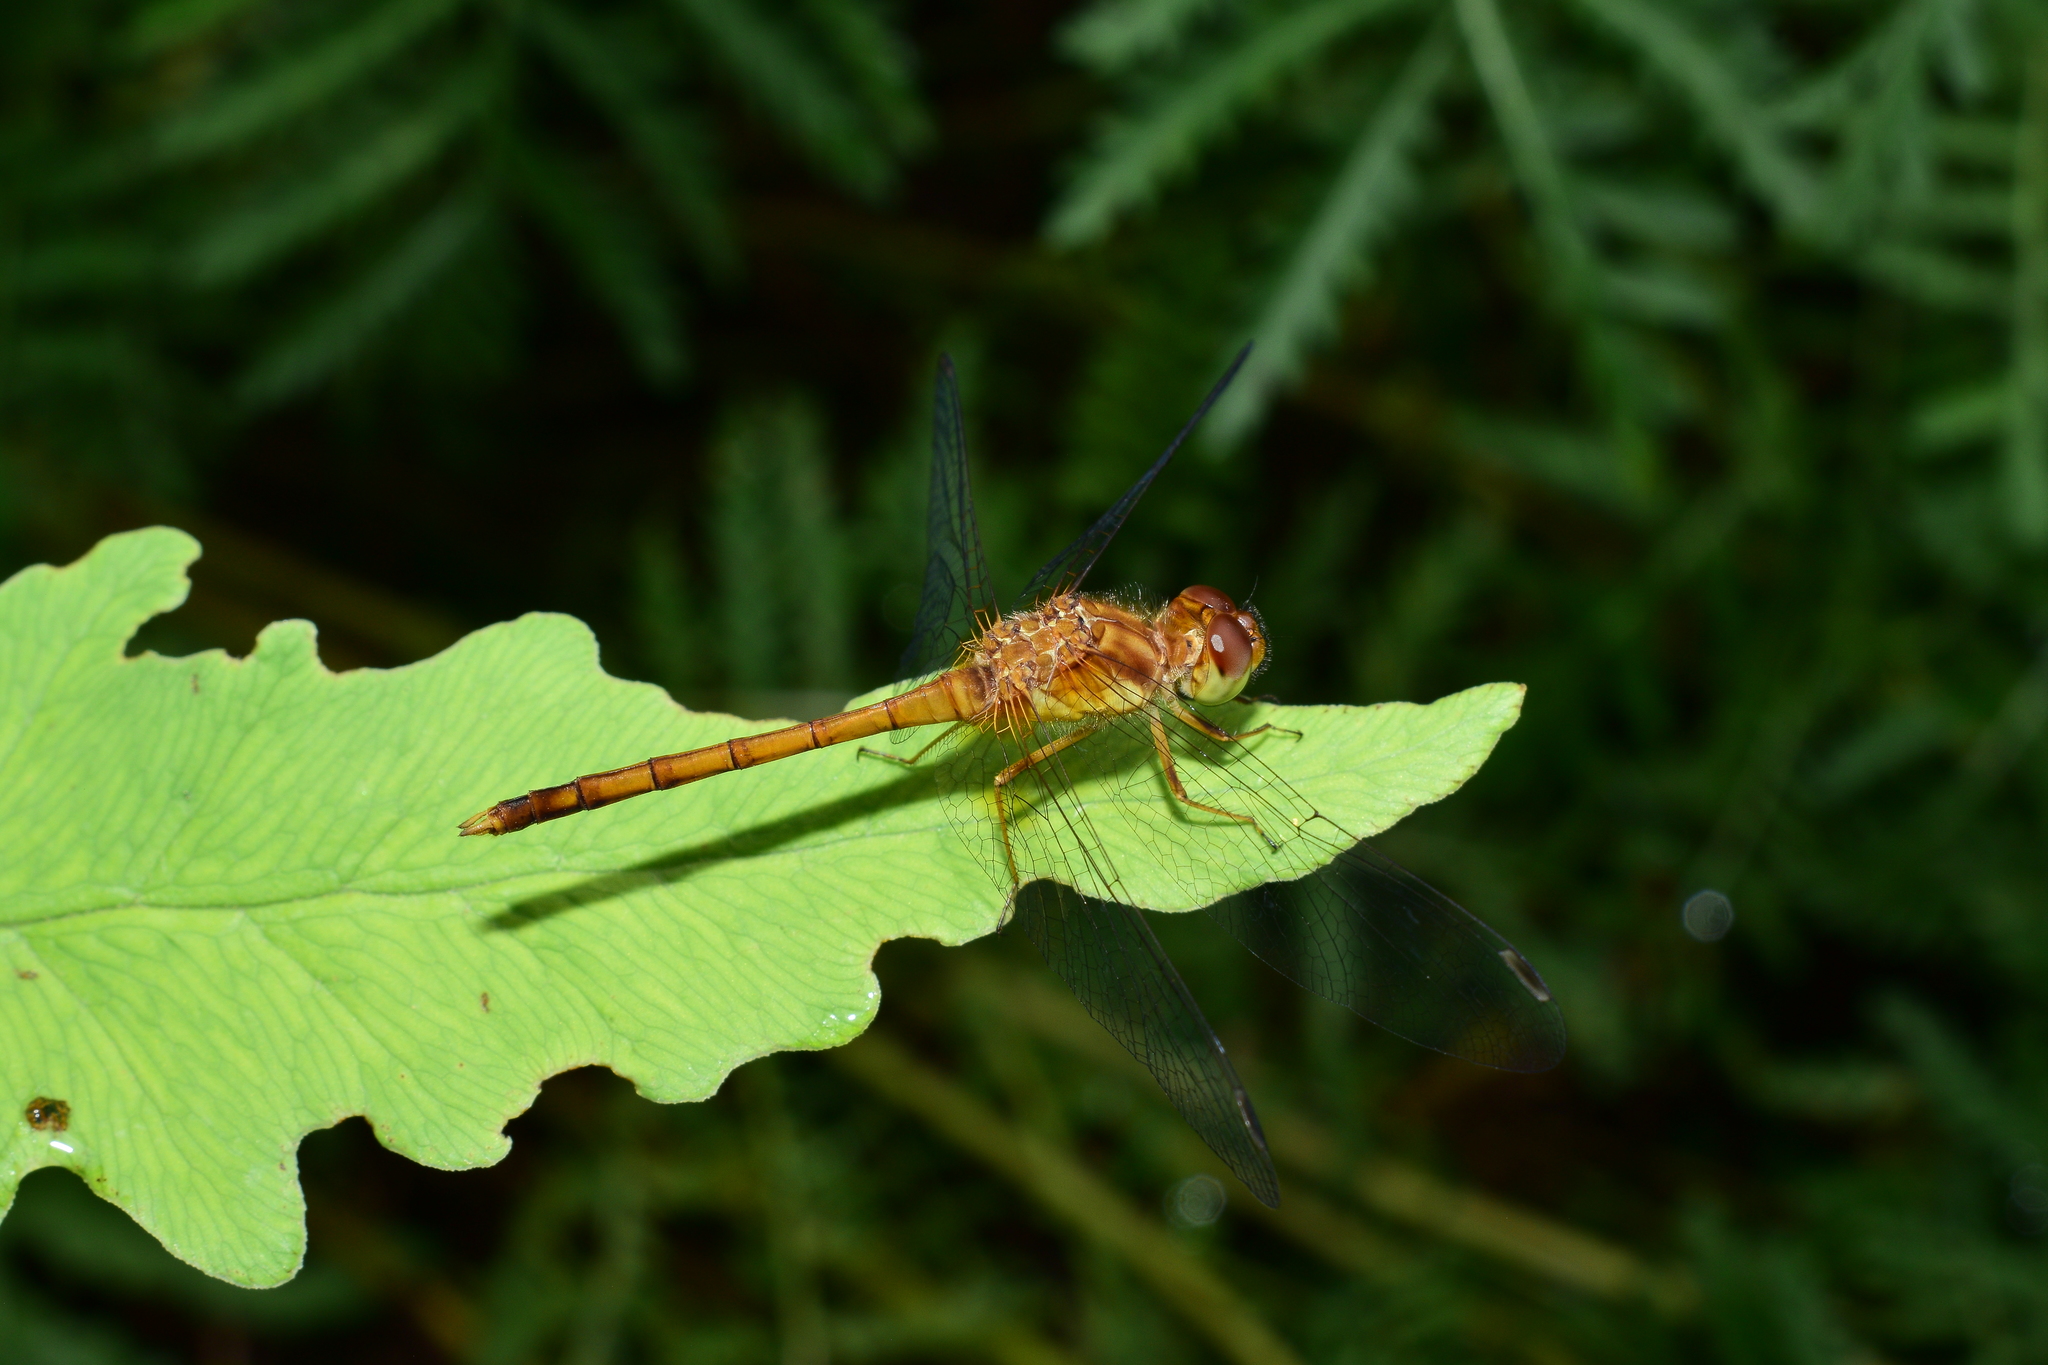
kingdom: Animalia
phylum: Arthropoda
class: Insecta
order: Odonata
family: Libellulidae
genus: Sympetrum
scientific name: Sympetrum vicinum
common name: Autumn meadowhawk
